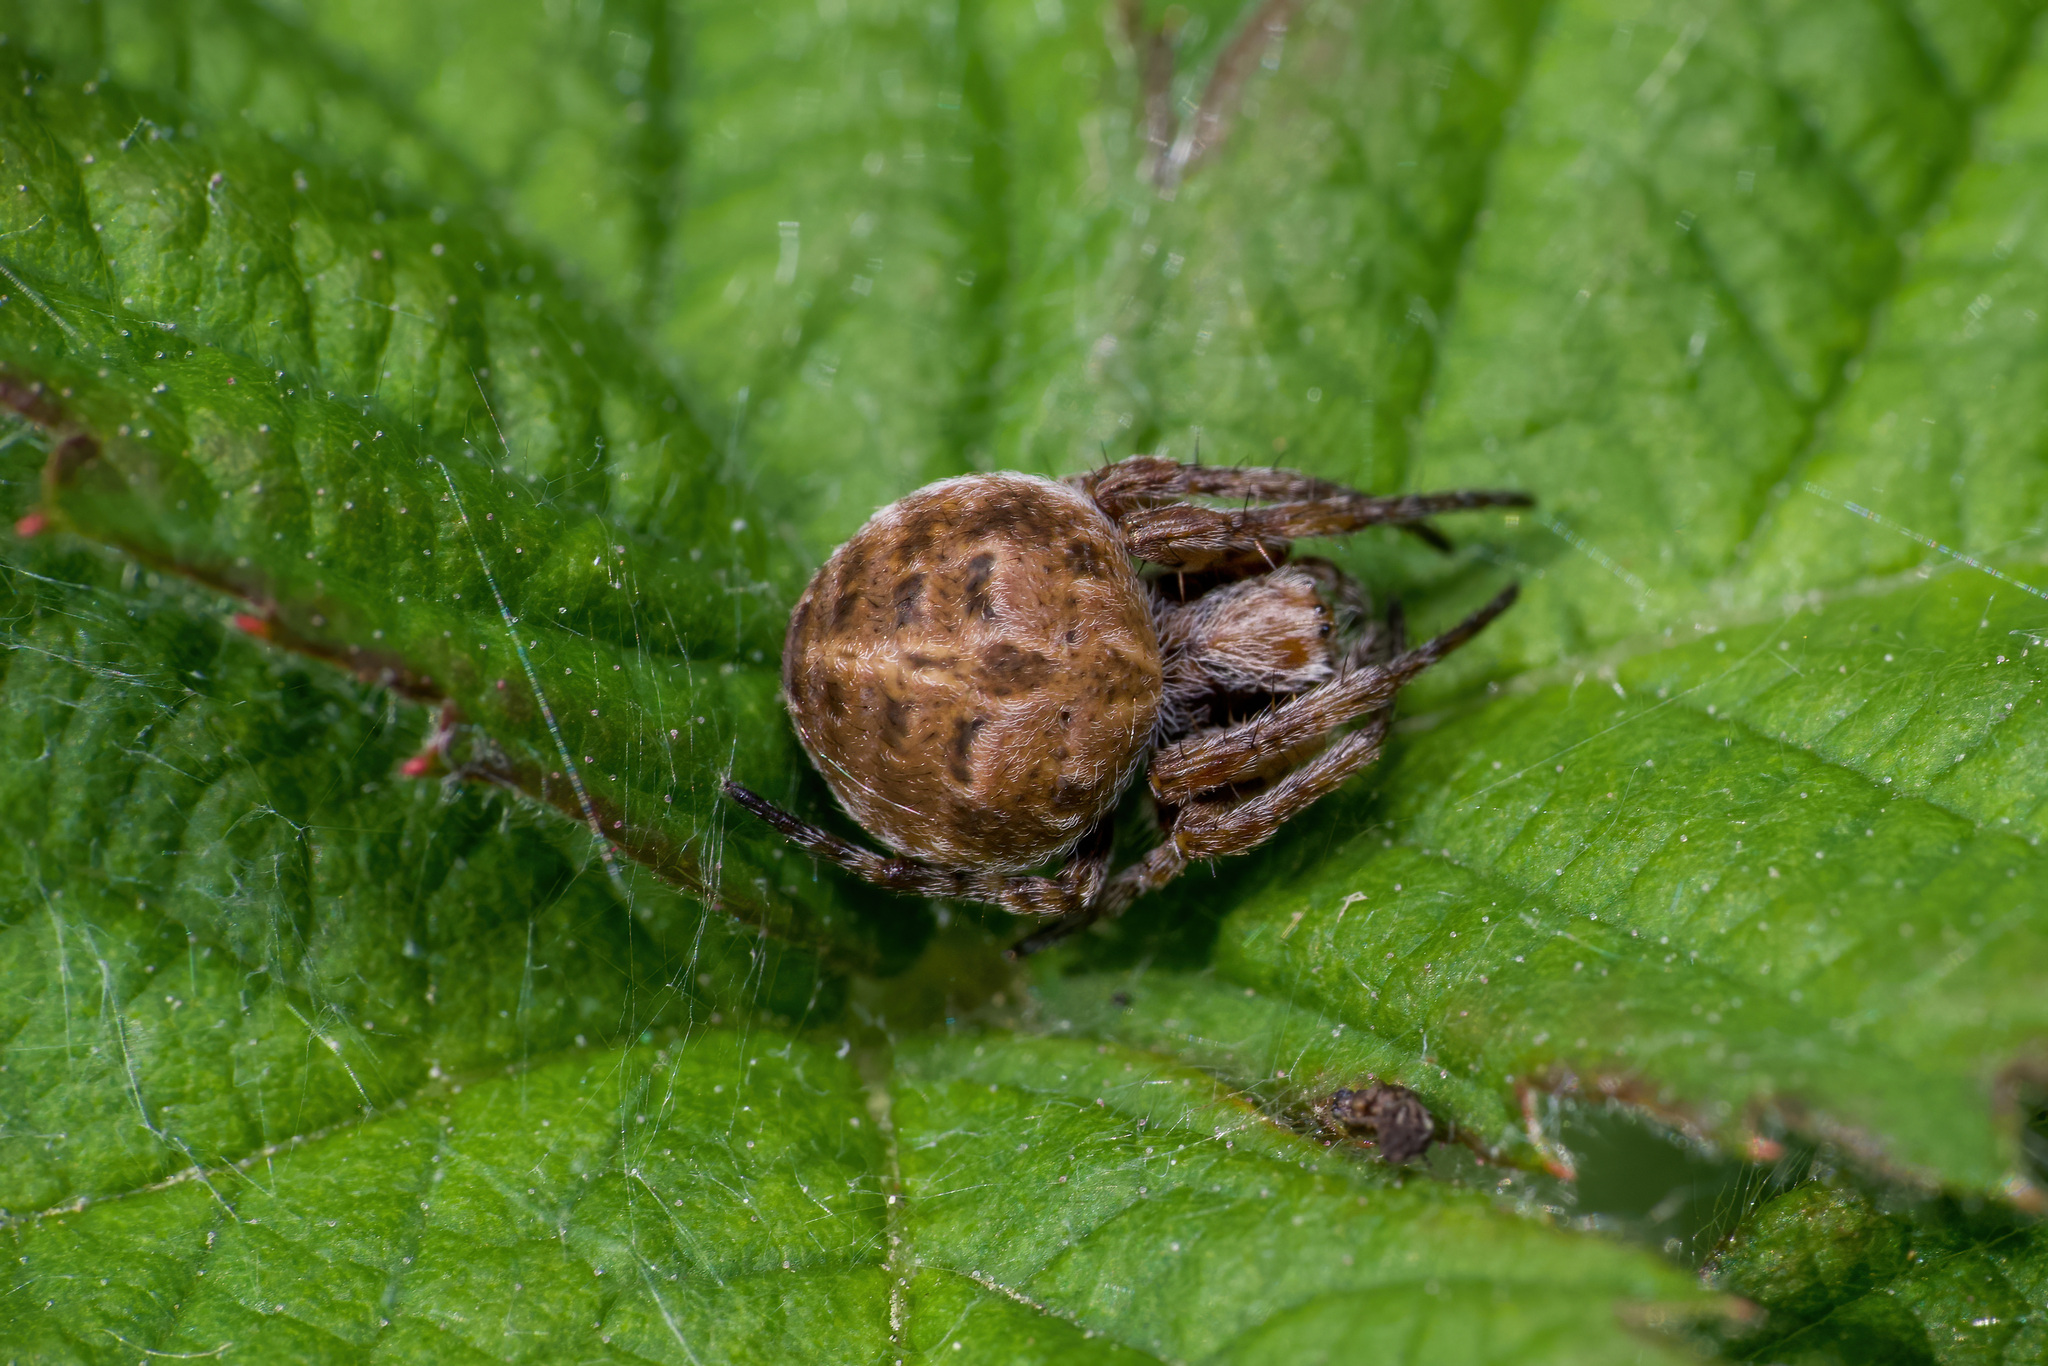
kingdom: Animalia
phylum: Arthropoda
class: Arachnida
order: Araneae
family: Araneidae
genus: Agalenatea
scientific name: Agalenatea redii
